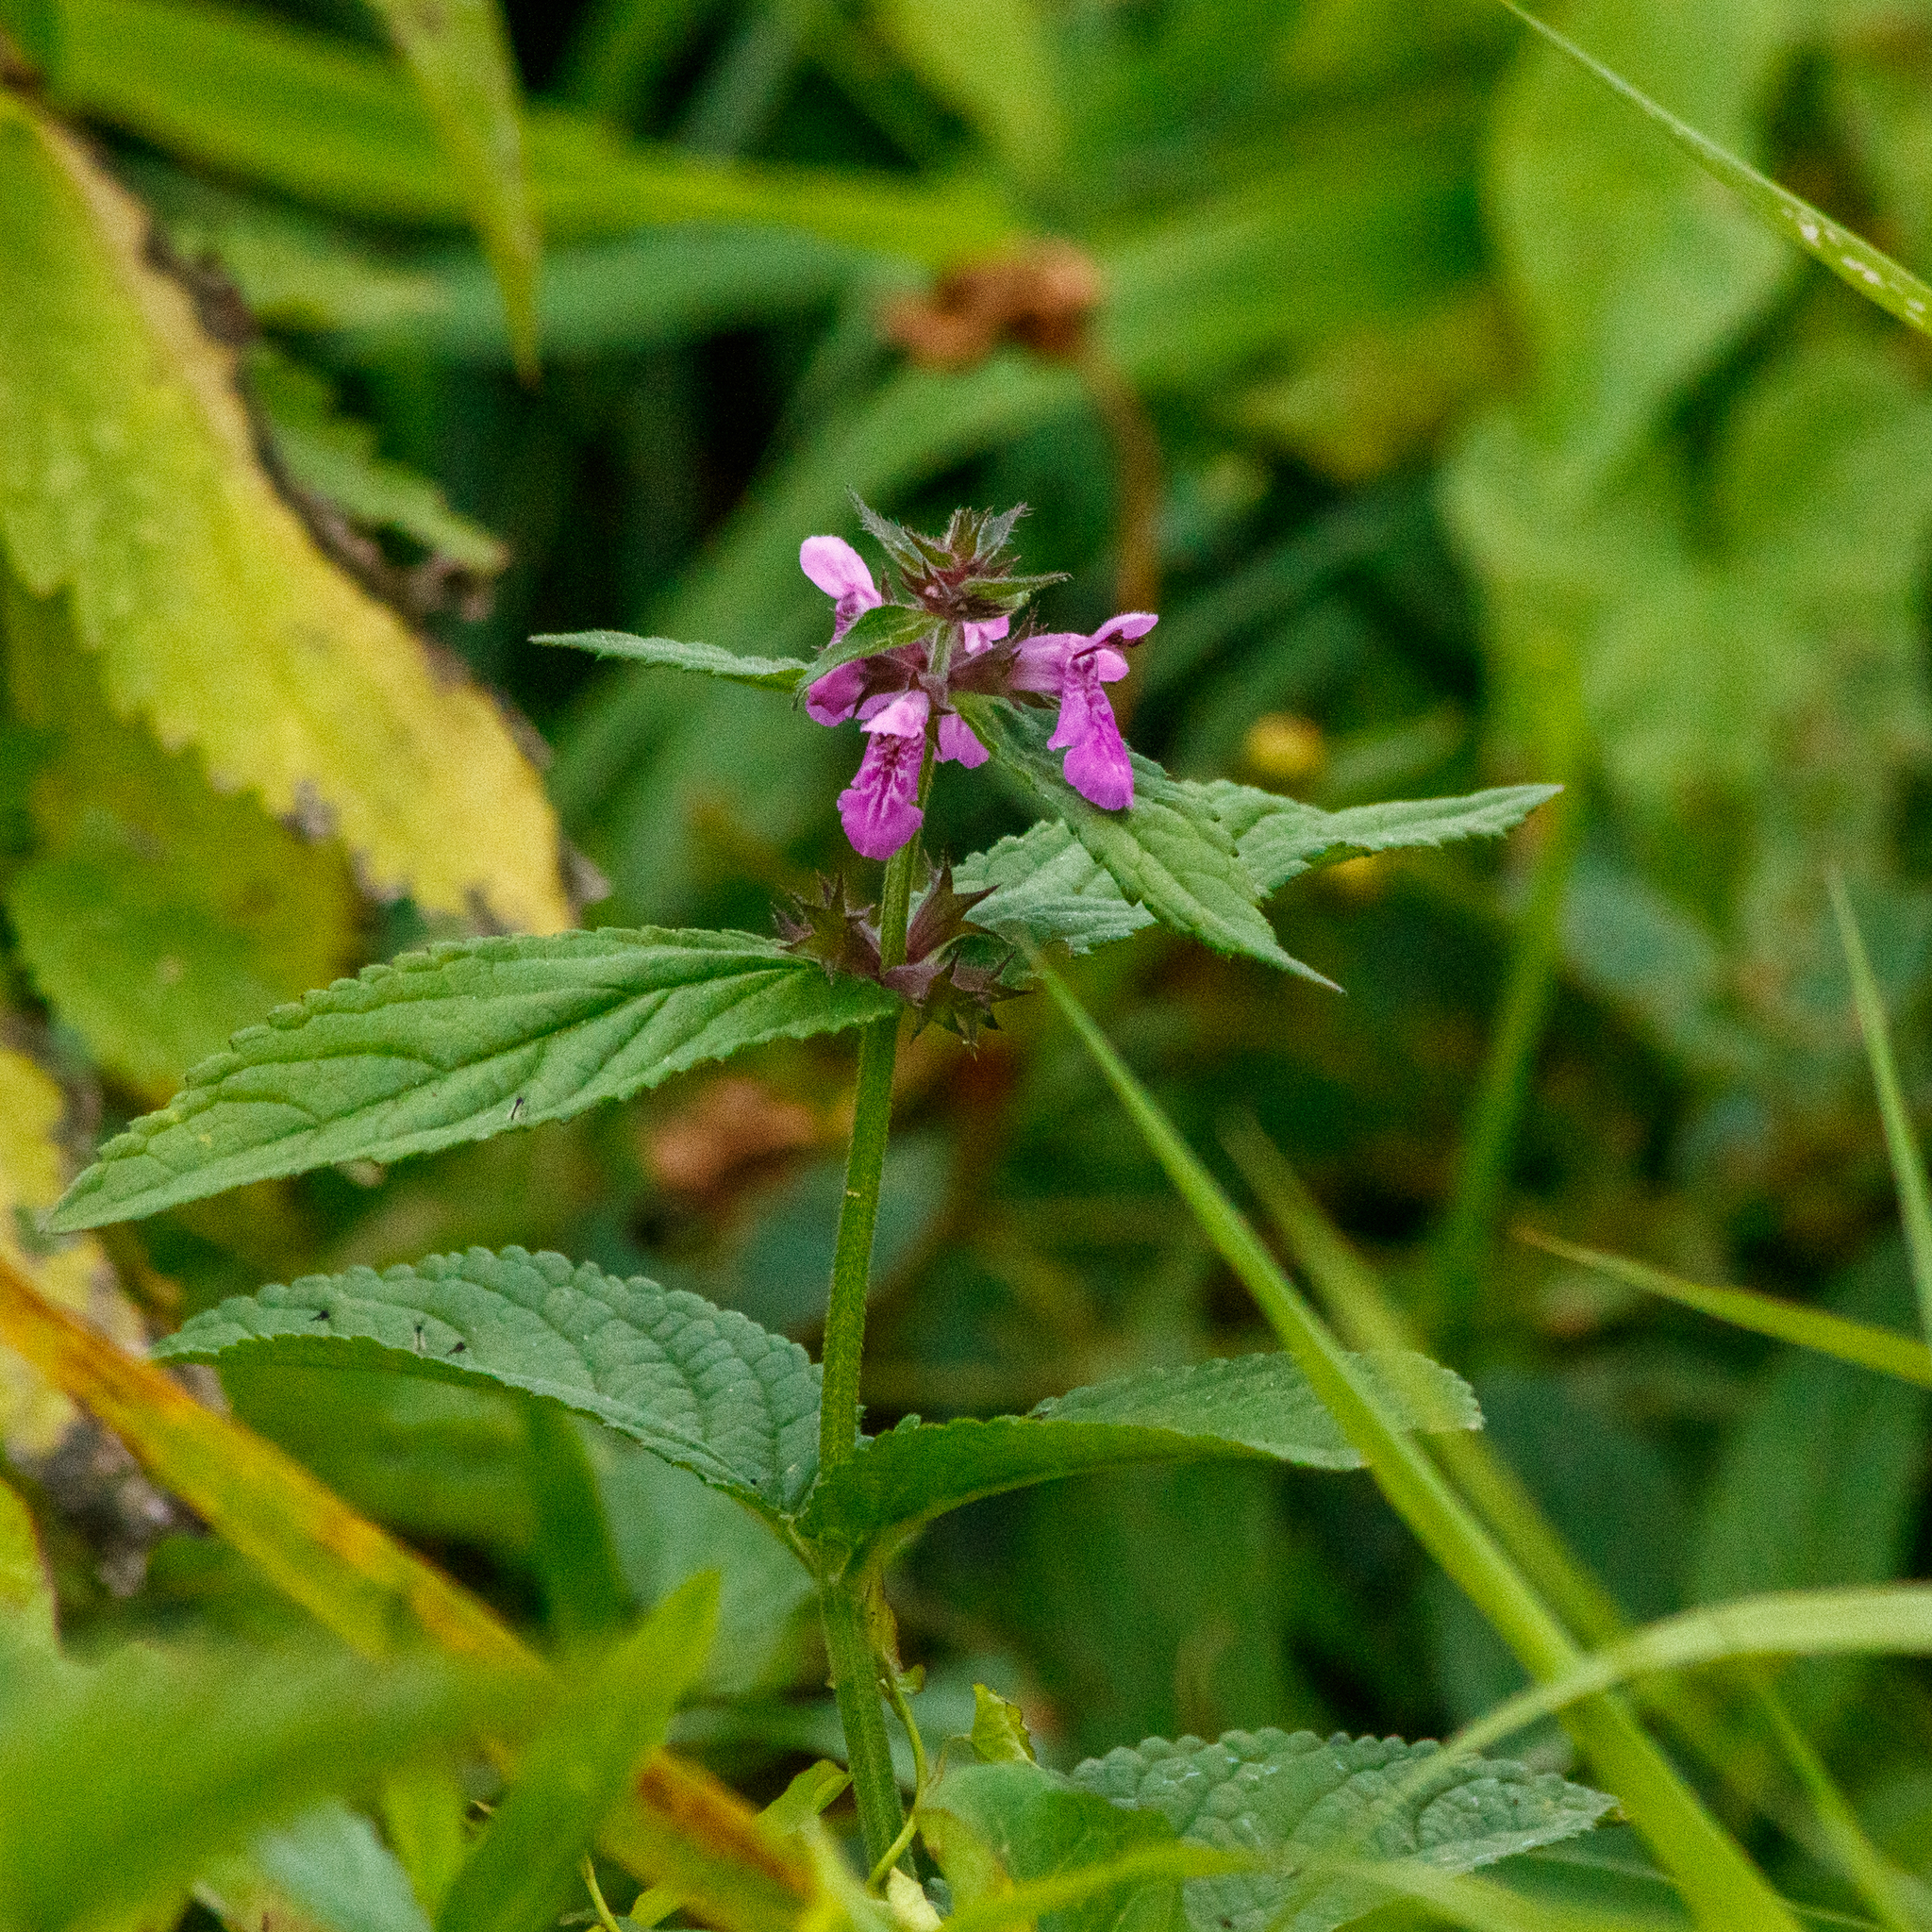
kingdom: Plantae
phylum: Tracheophyta
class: Magnoliopsida
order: Lamiales
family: Lamiaceae
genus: Stachys
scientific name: Stachys palustris
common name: Marsh woundwort
